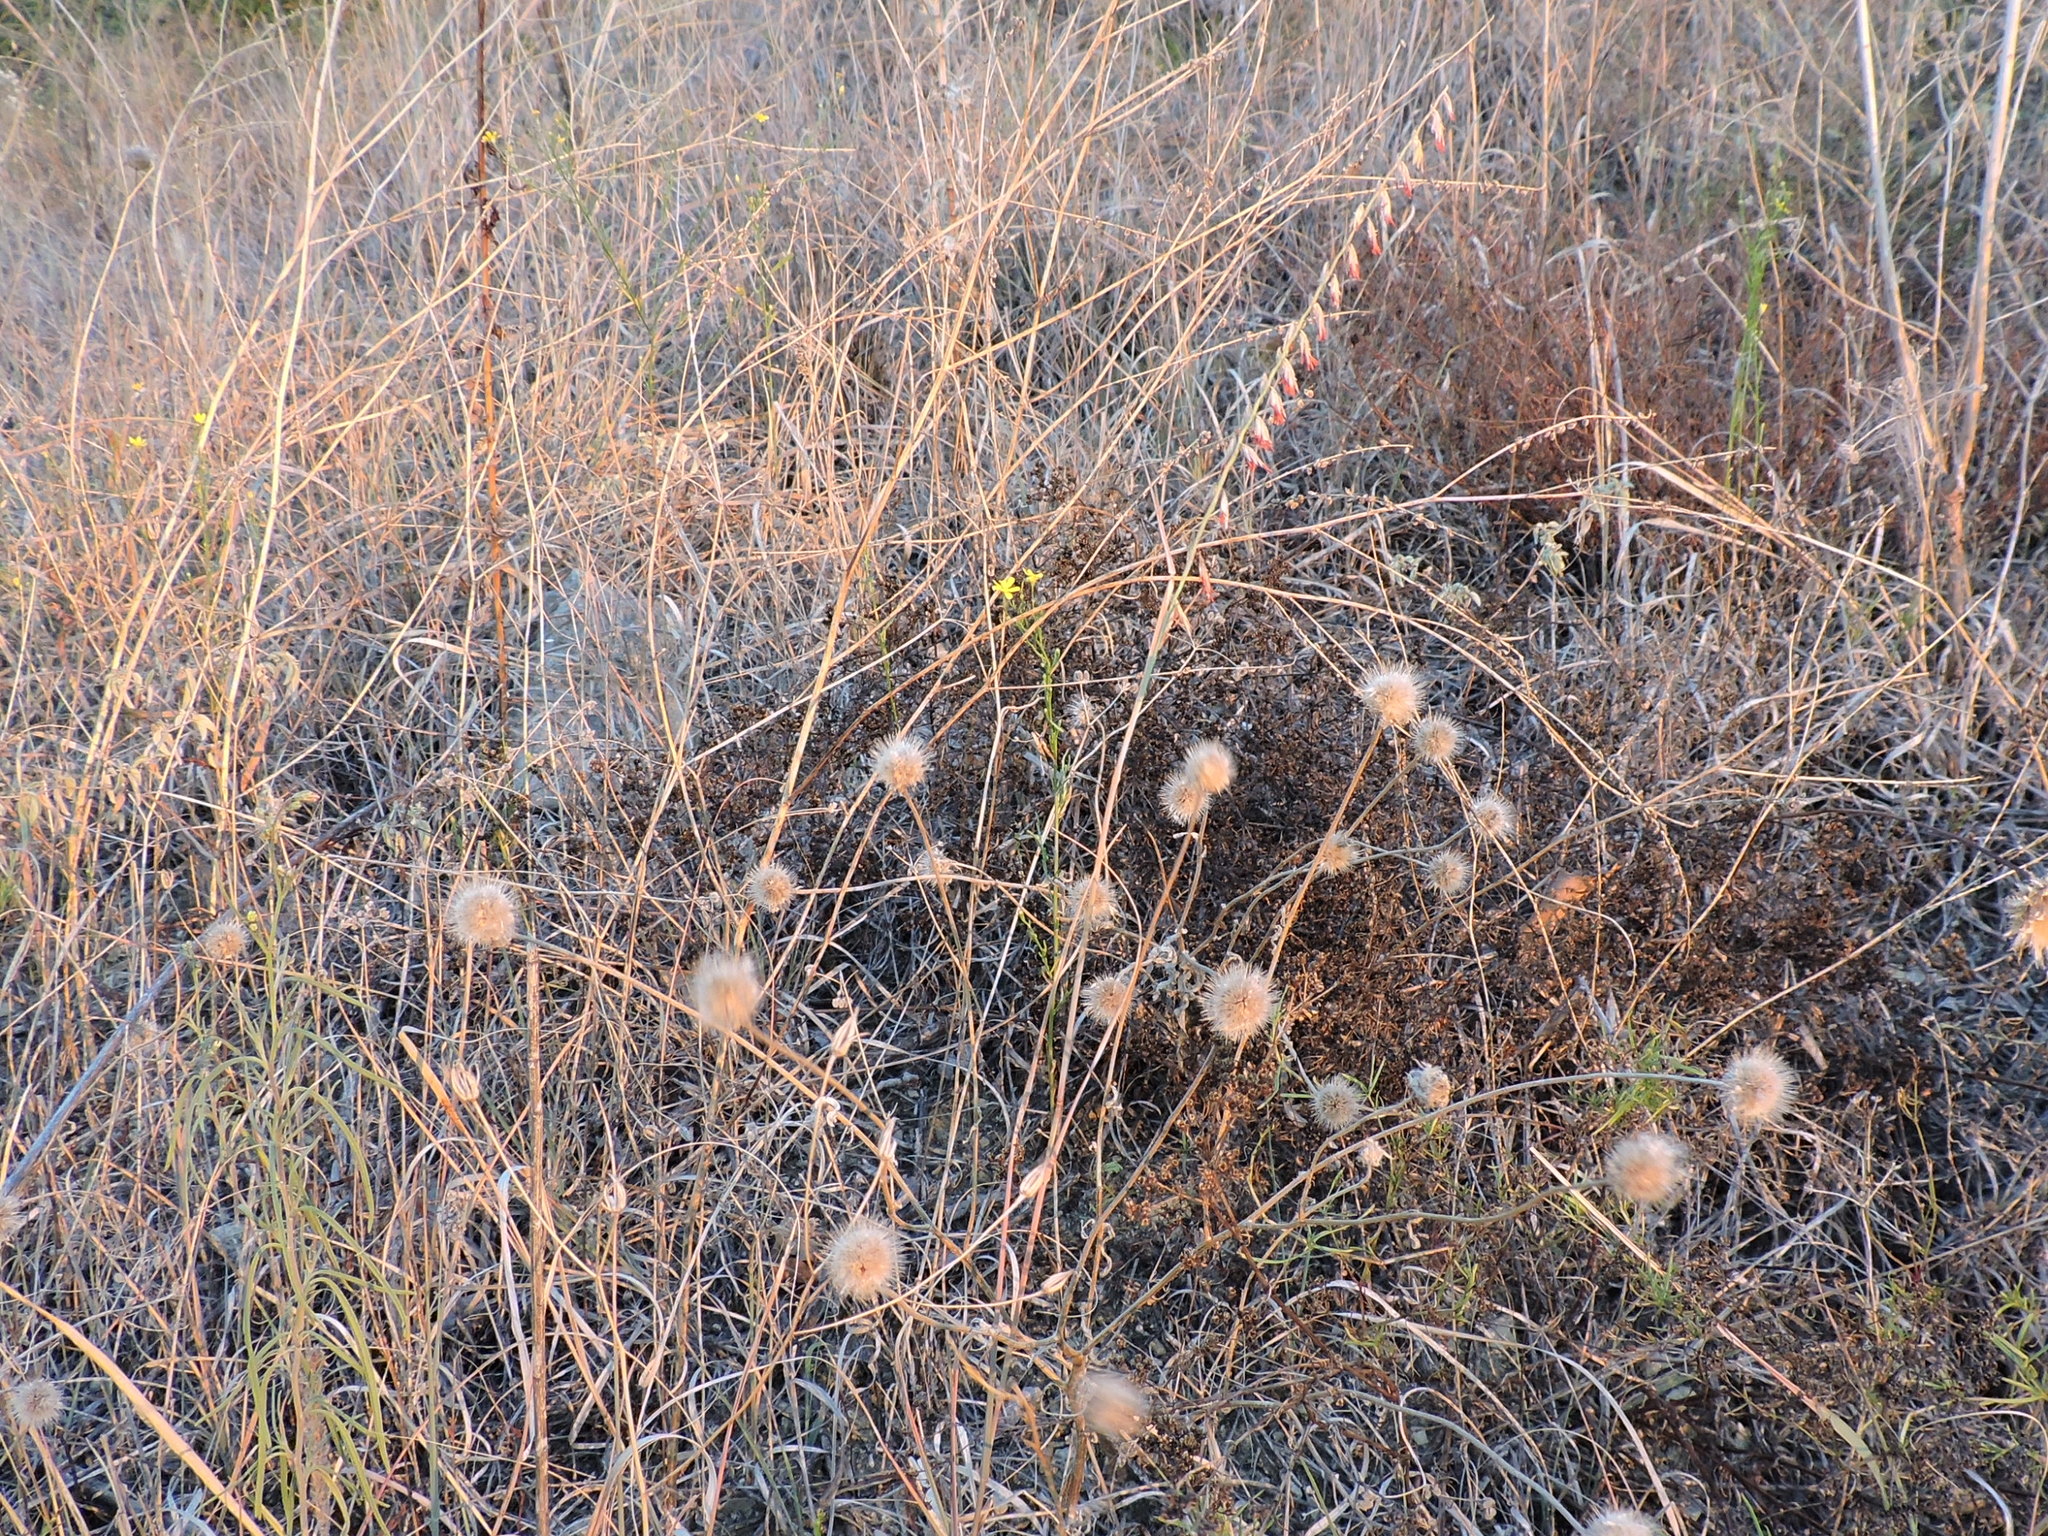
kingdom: Plantae
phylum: Tracheophyta
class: Liliopsida
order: Poales
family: Poaceae
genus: Bouteloua
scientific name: Bouteloua curtipendula
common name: Side-oats grama
